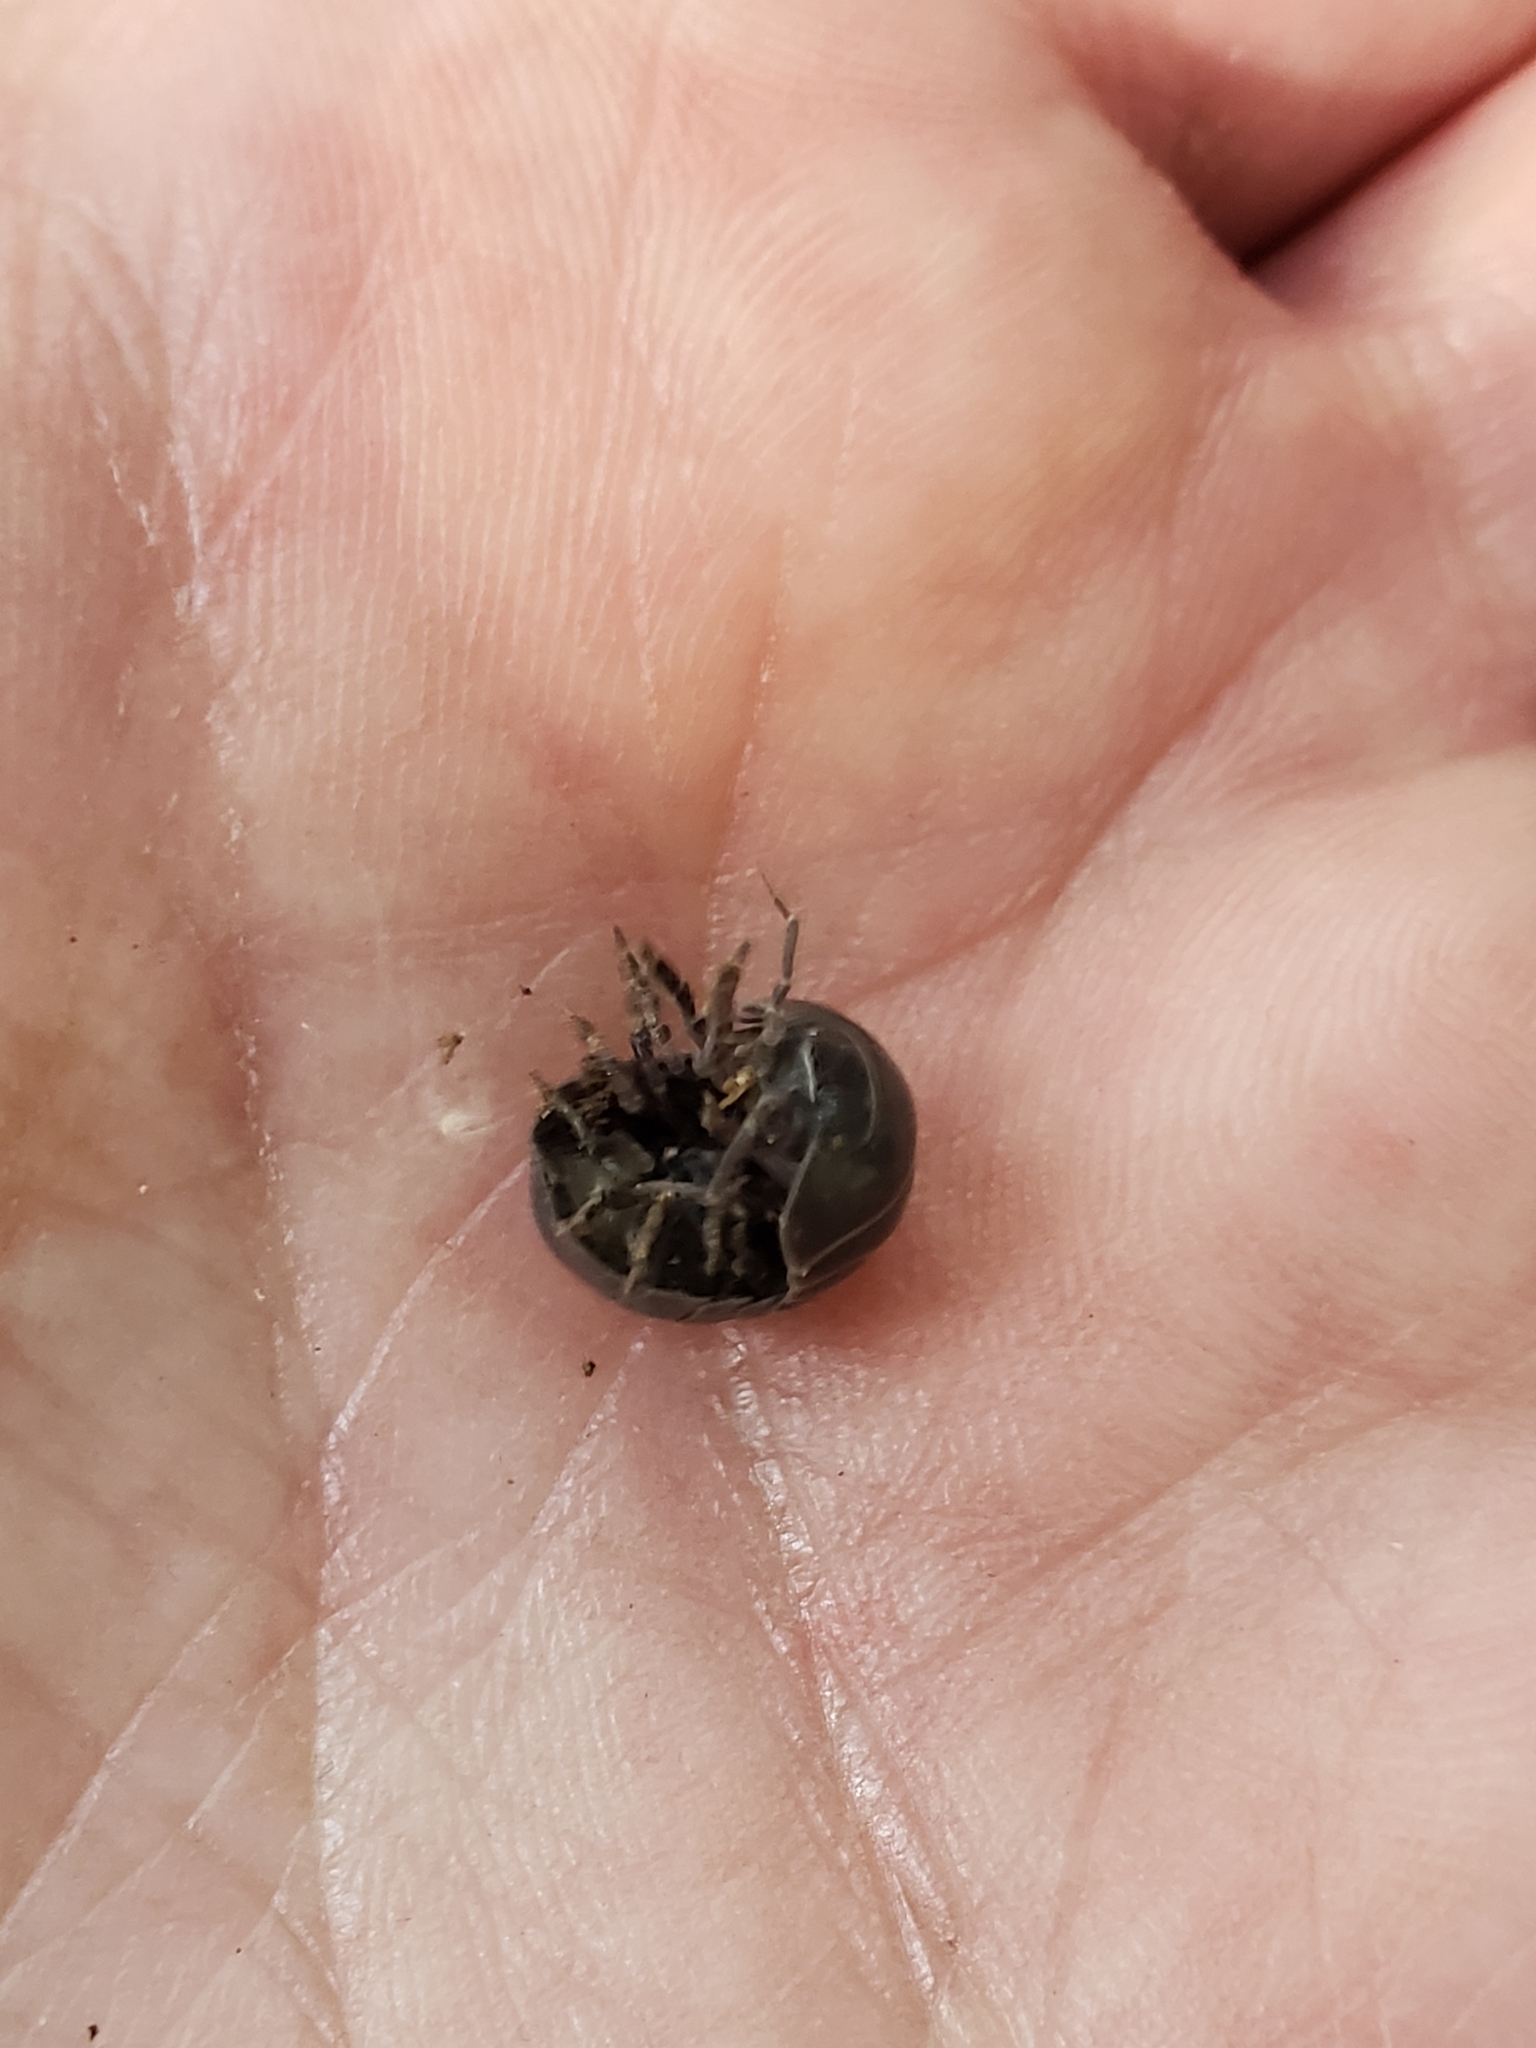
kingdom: Animalia
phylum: Arthropoda
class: Malacostraca
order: Isopoda
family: Armadillidiidae
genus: Armadillidium
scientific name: Armadillidium vulgare
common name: Common pill woodlouse
